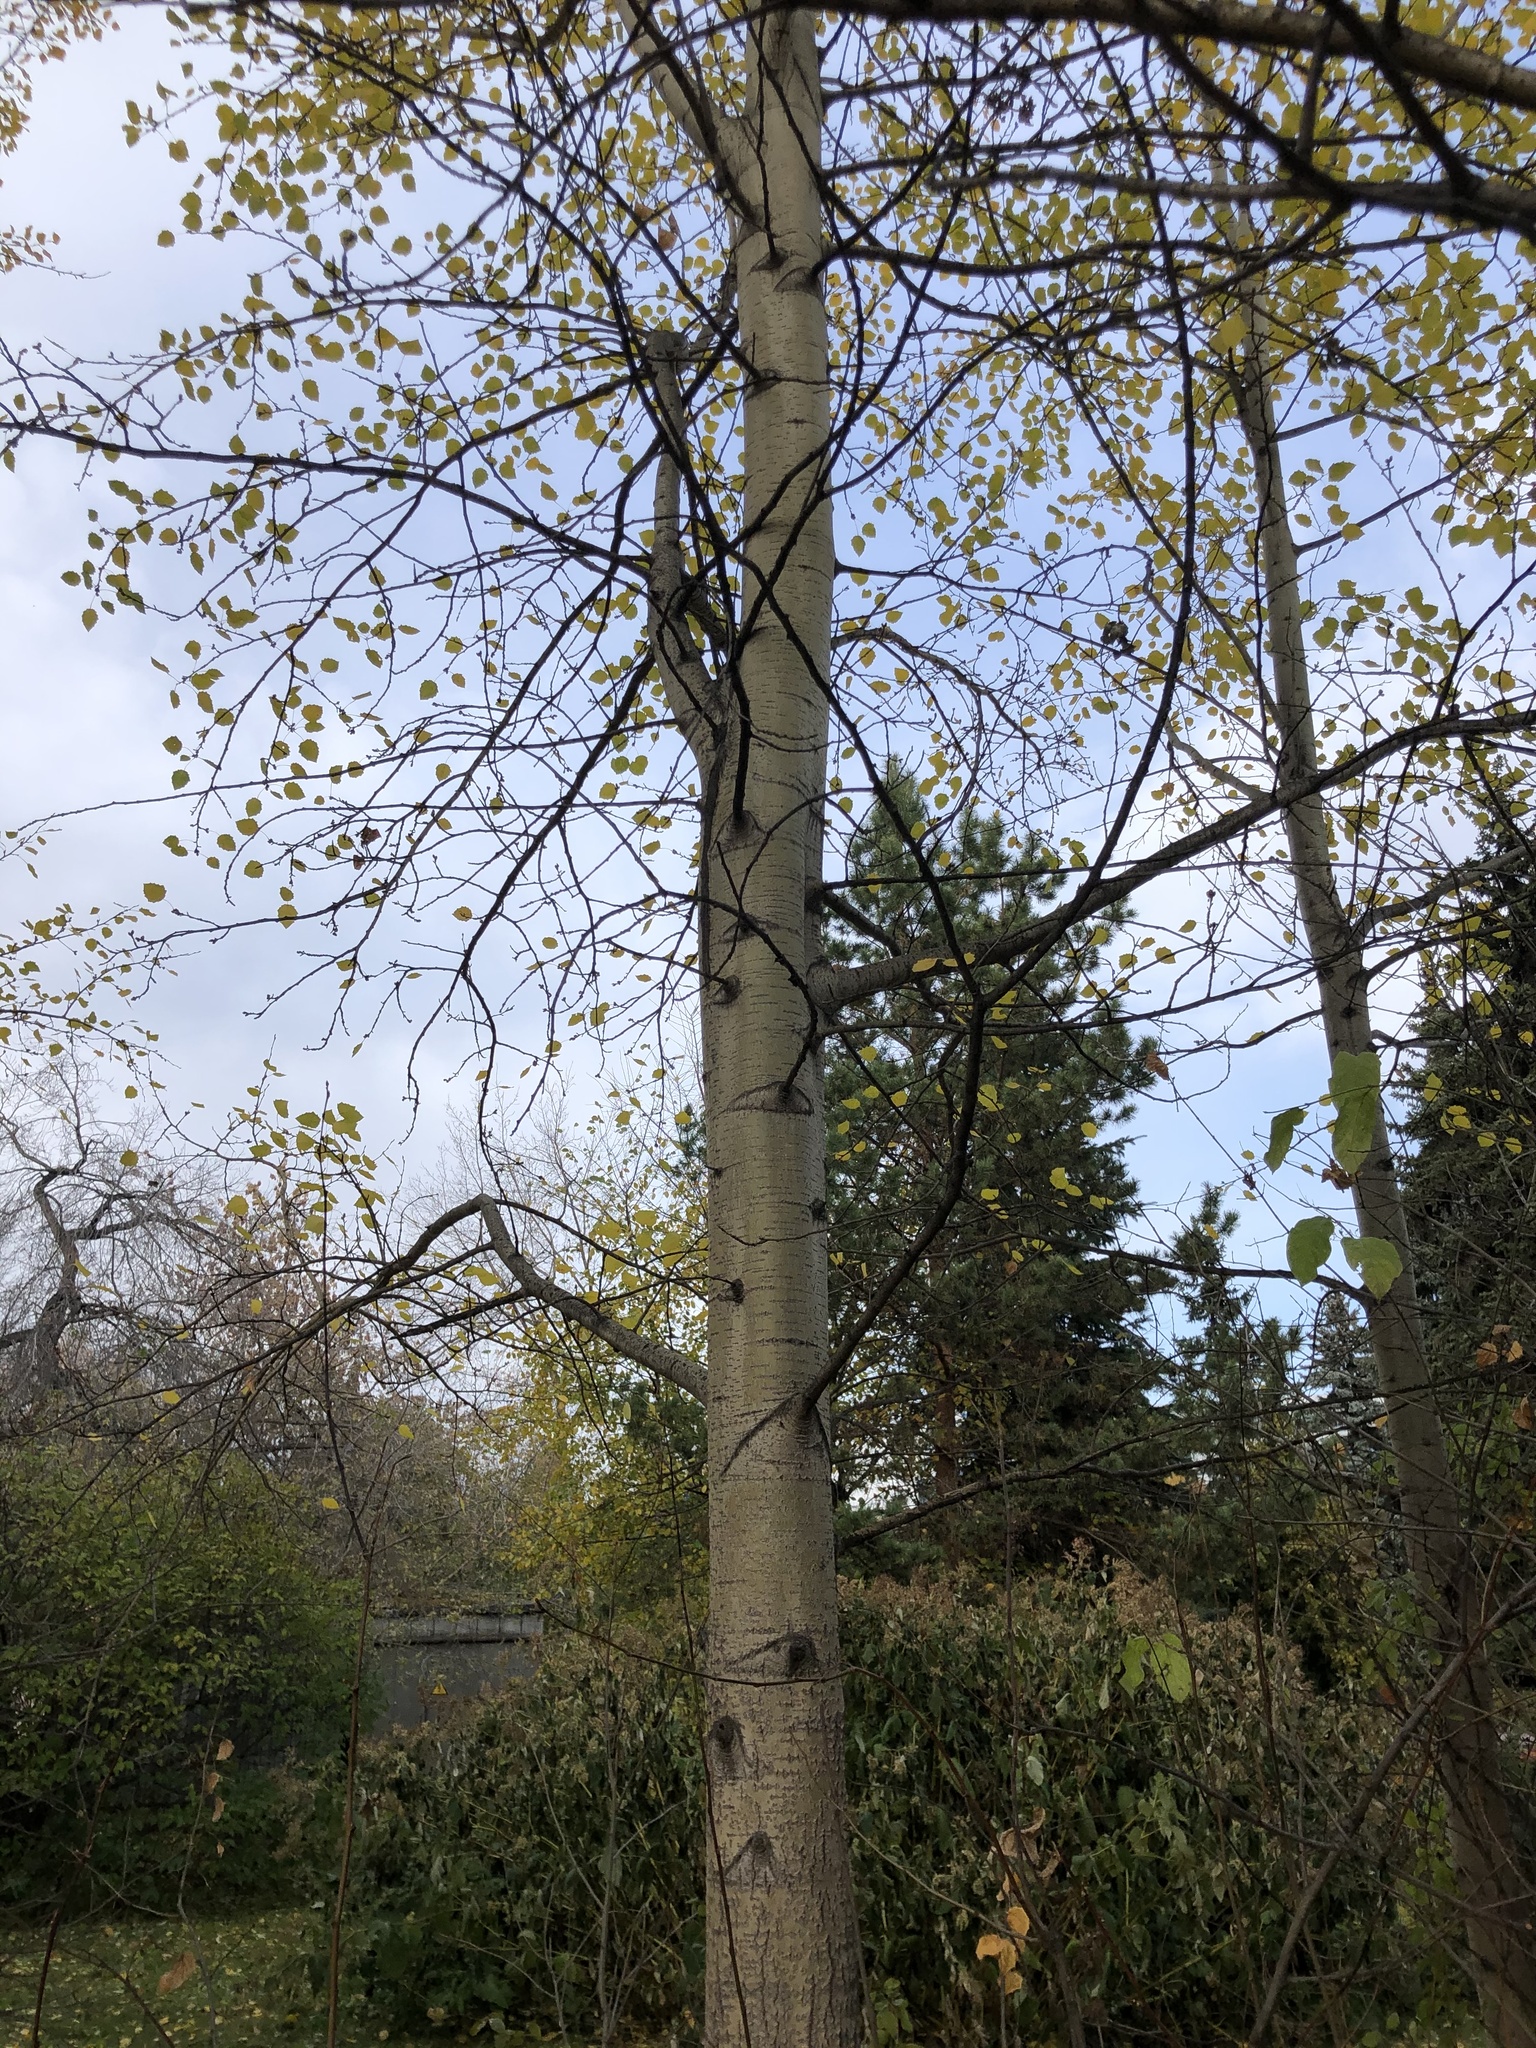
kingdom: Plantae
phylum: Tracheophyta
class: Magnoliopsida
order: Malpighiales
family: Salicaceae
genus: Populus
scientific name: Populus tremula
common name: European aspen
